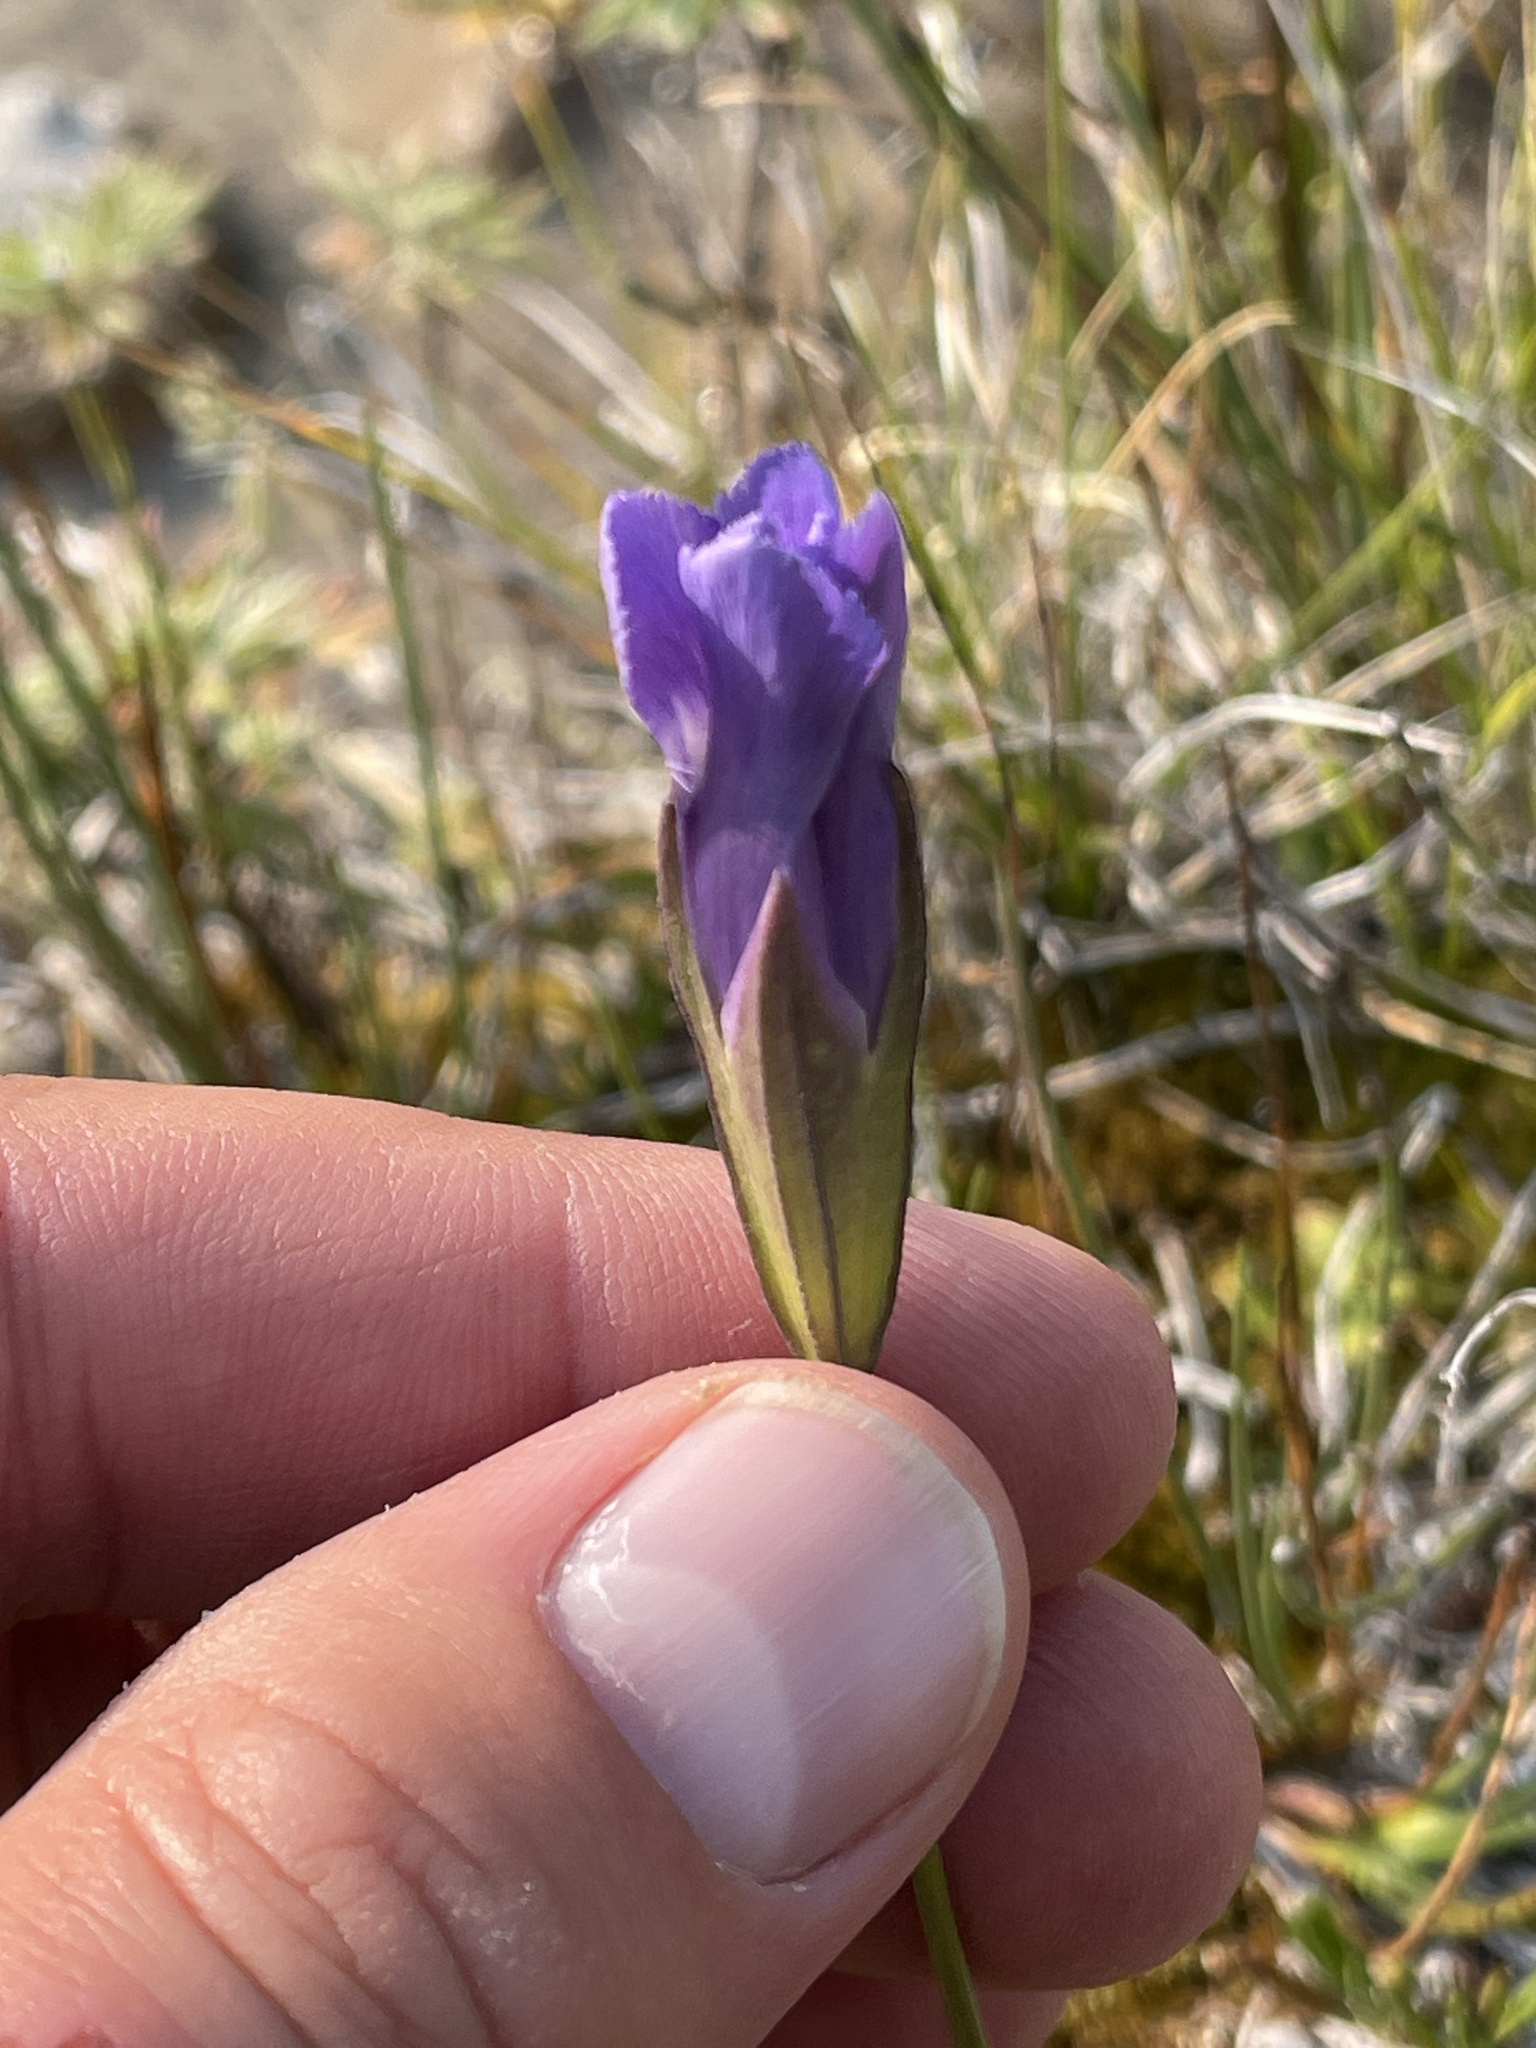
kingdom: Plantae
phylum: Tracheophyta
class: Magnoliopsida
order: Gentianales
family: Gentianaceae
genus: Gentianopsis
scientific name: Gentianopsis virgata
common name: Lesser fringed-gentian
